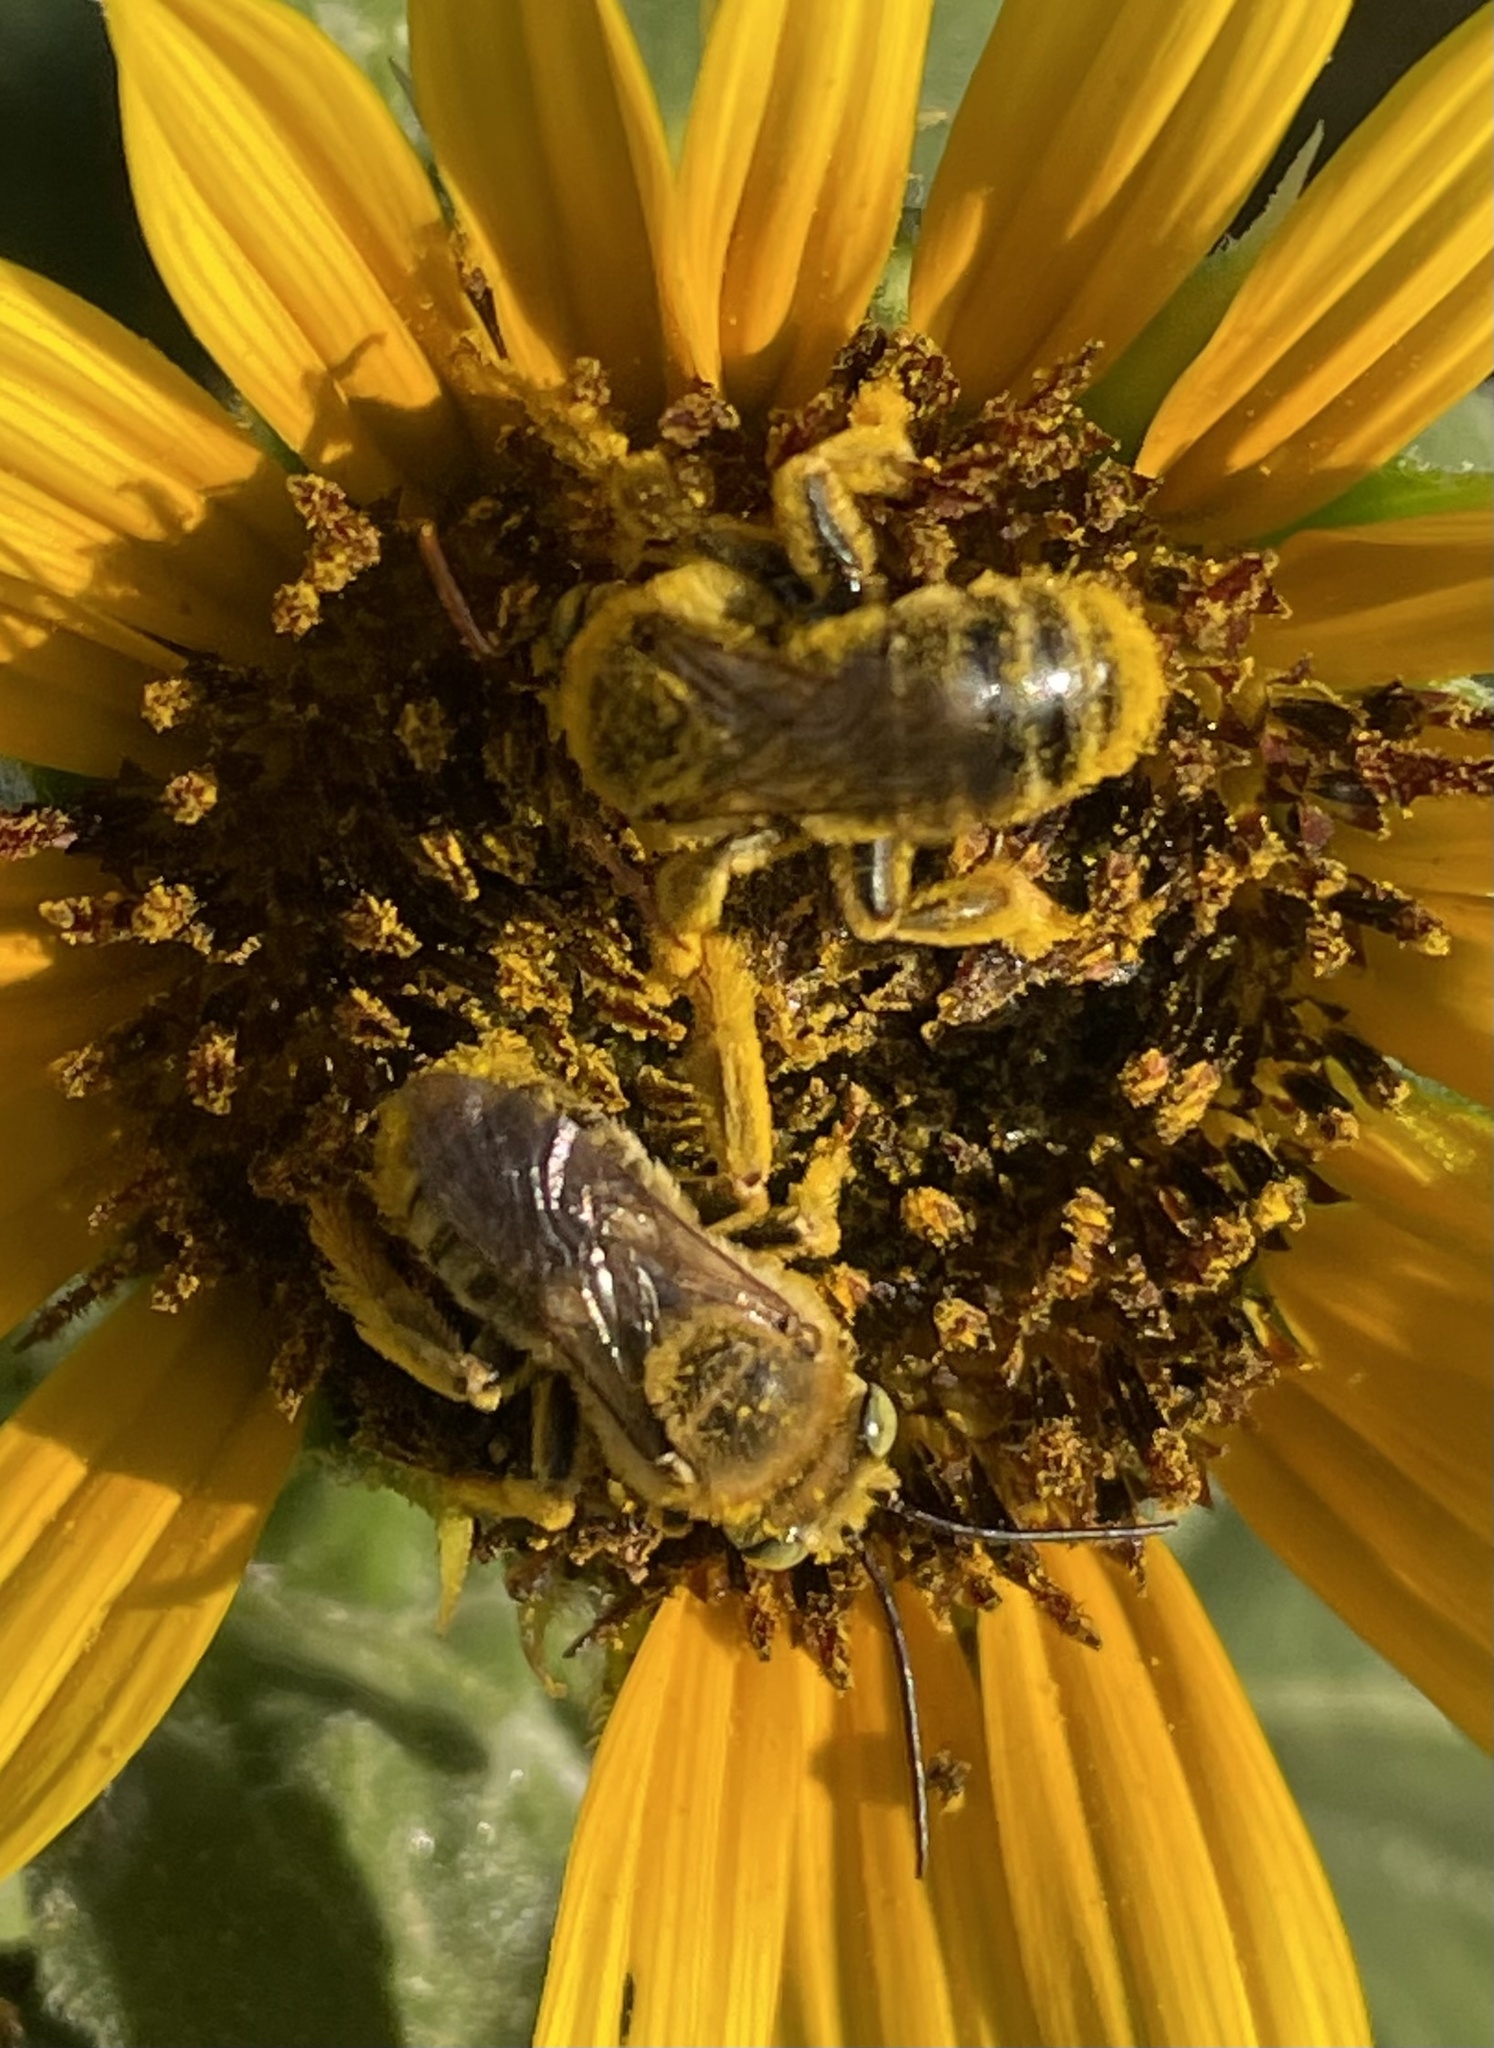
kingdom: Animalia
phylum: Arthropoda
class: Insecta
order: Hymenoptera
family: Apidae
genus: Svastra
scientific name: Svastra obliqua
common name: Oblique longhorn
